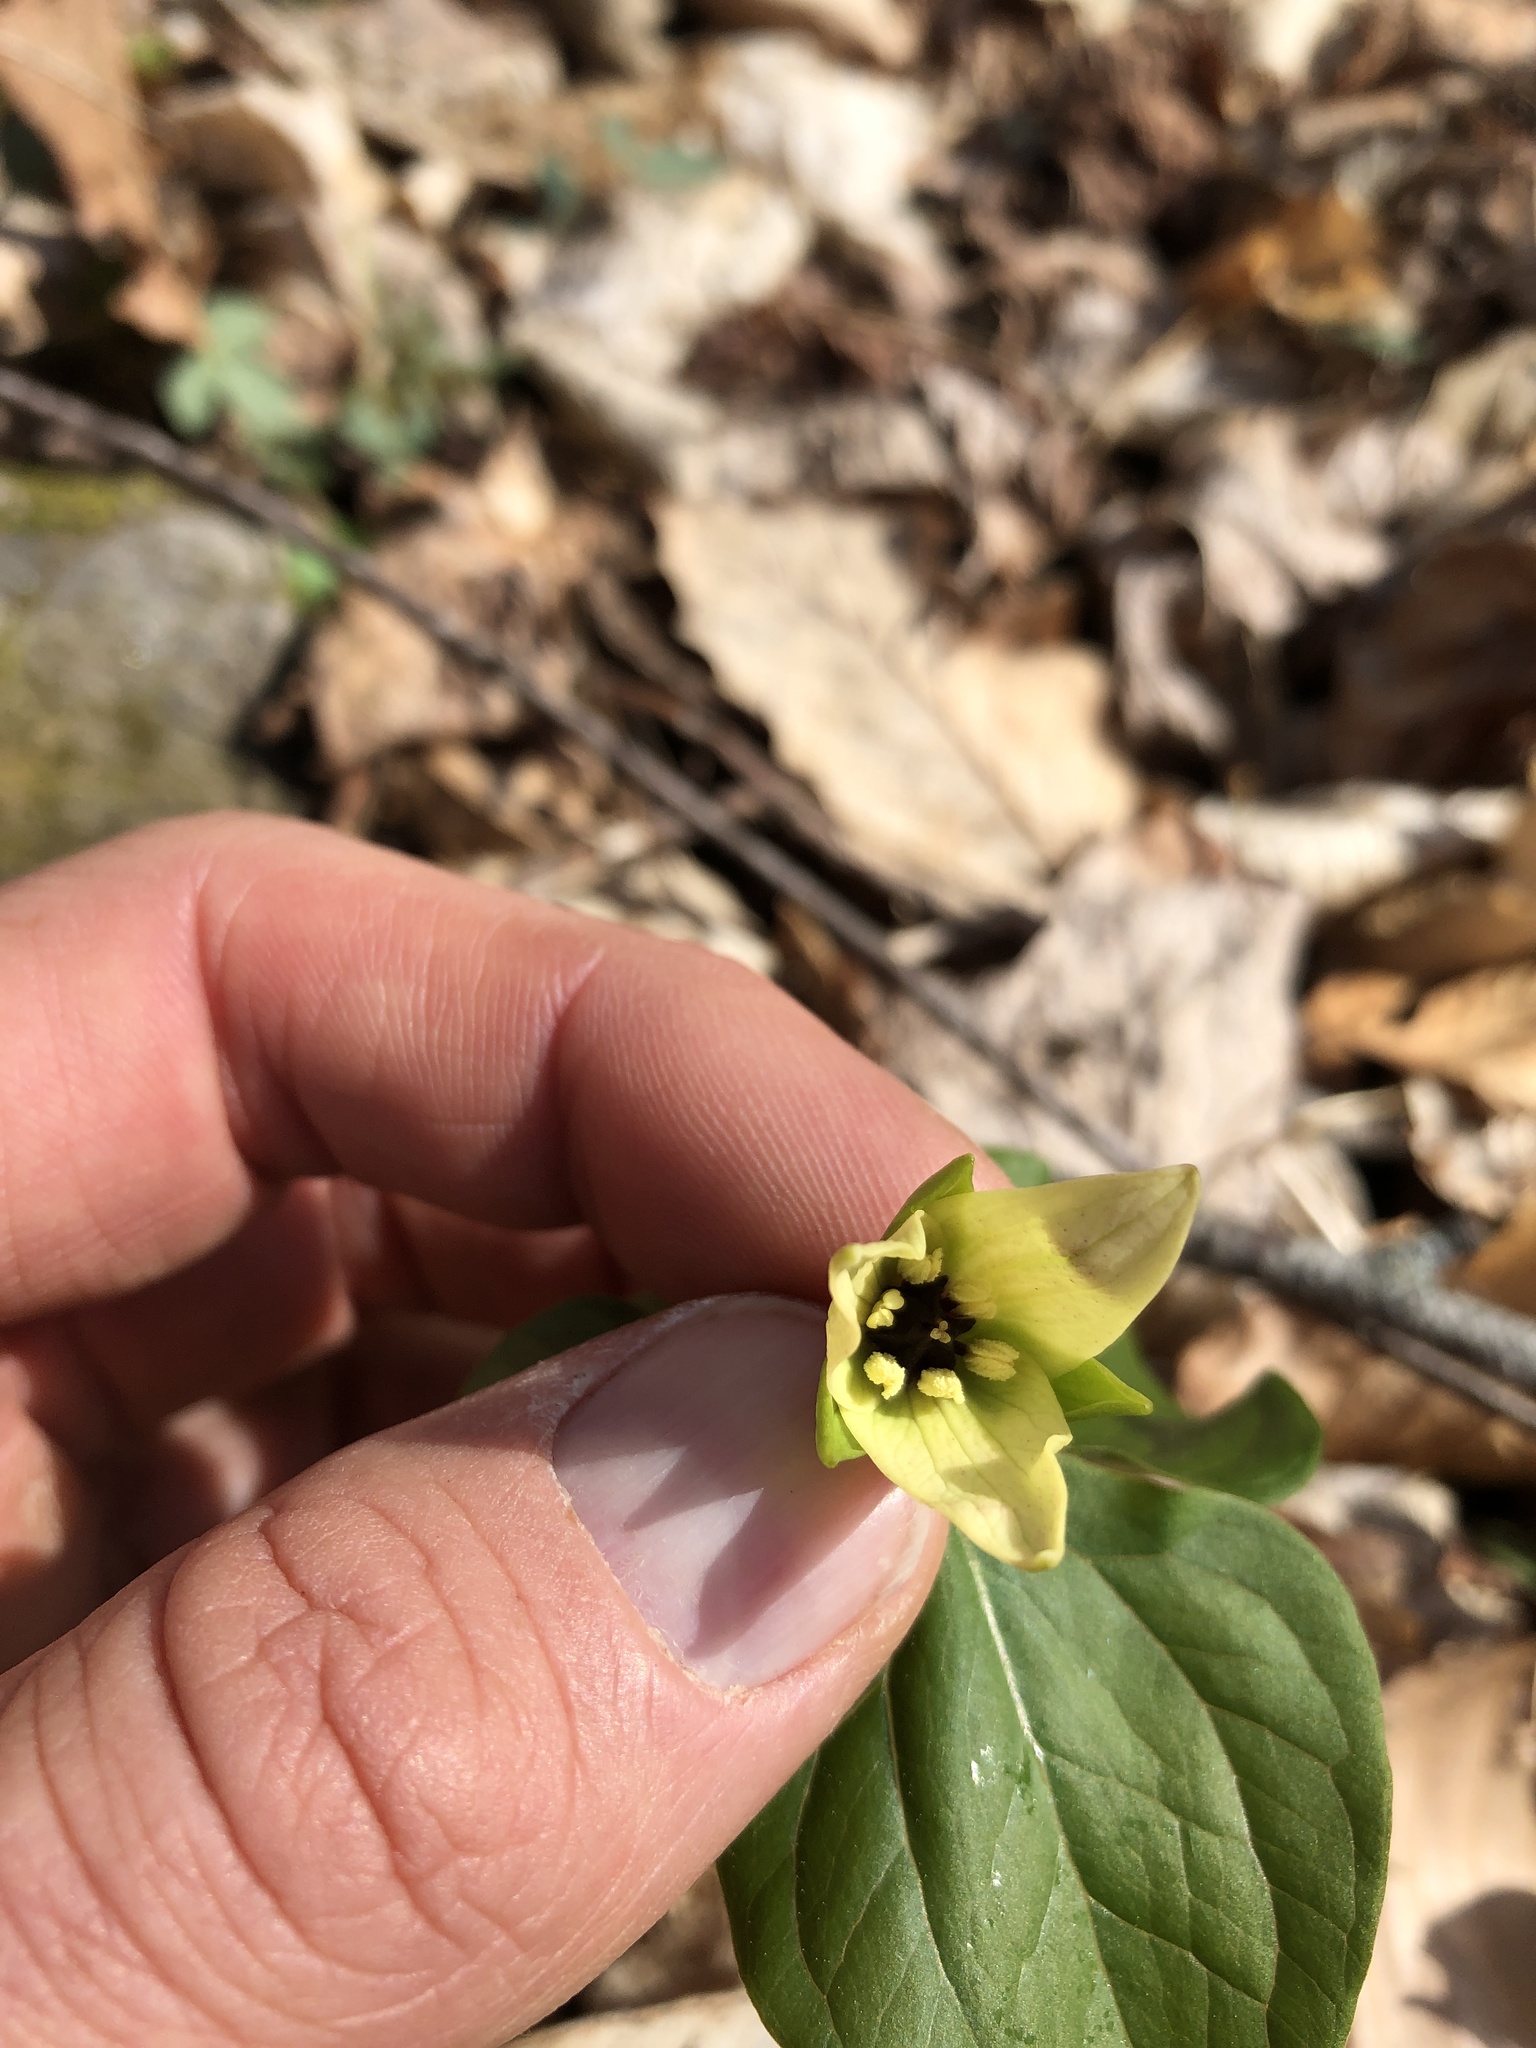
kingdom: Plantae
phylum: Tracheophyta
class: Liliopsida
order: Liliales
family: Melanthiaceae
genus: Trillium
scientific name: Trillium erectum
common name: Purple trillium
